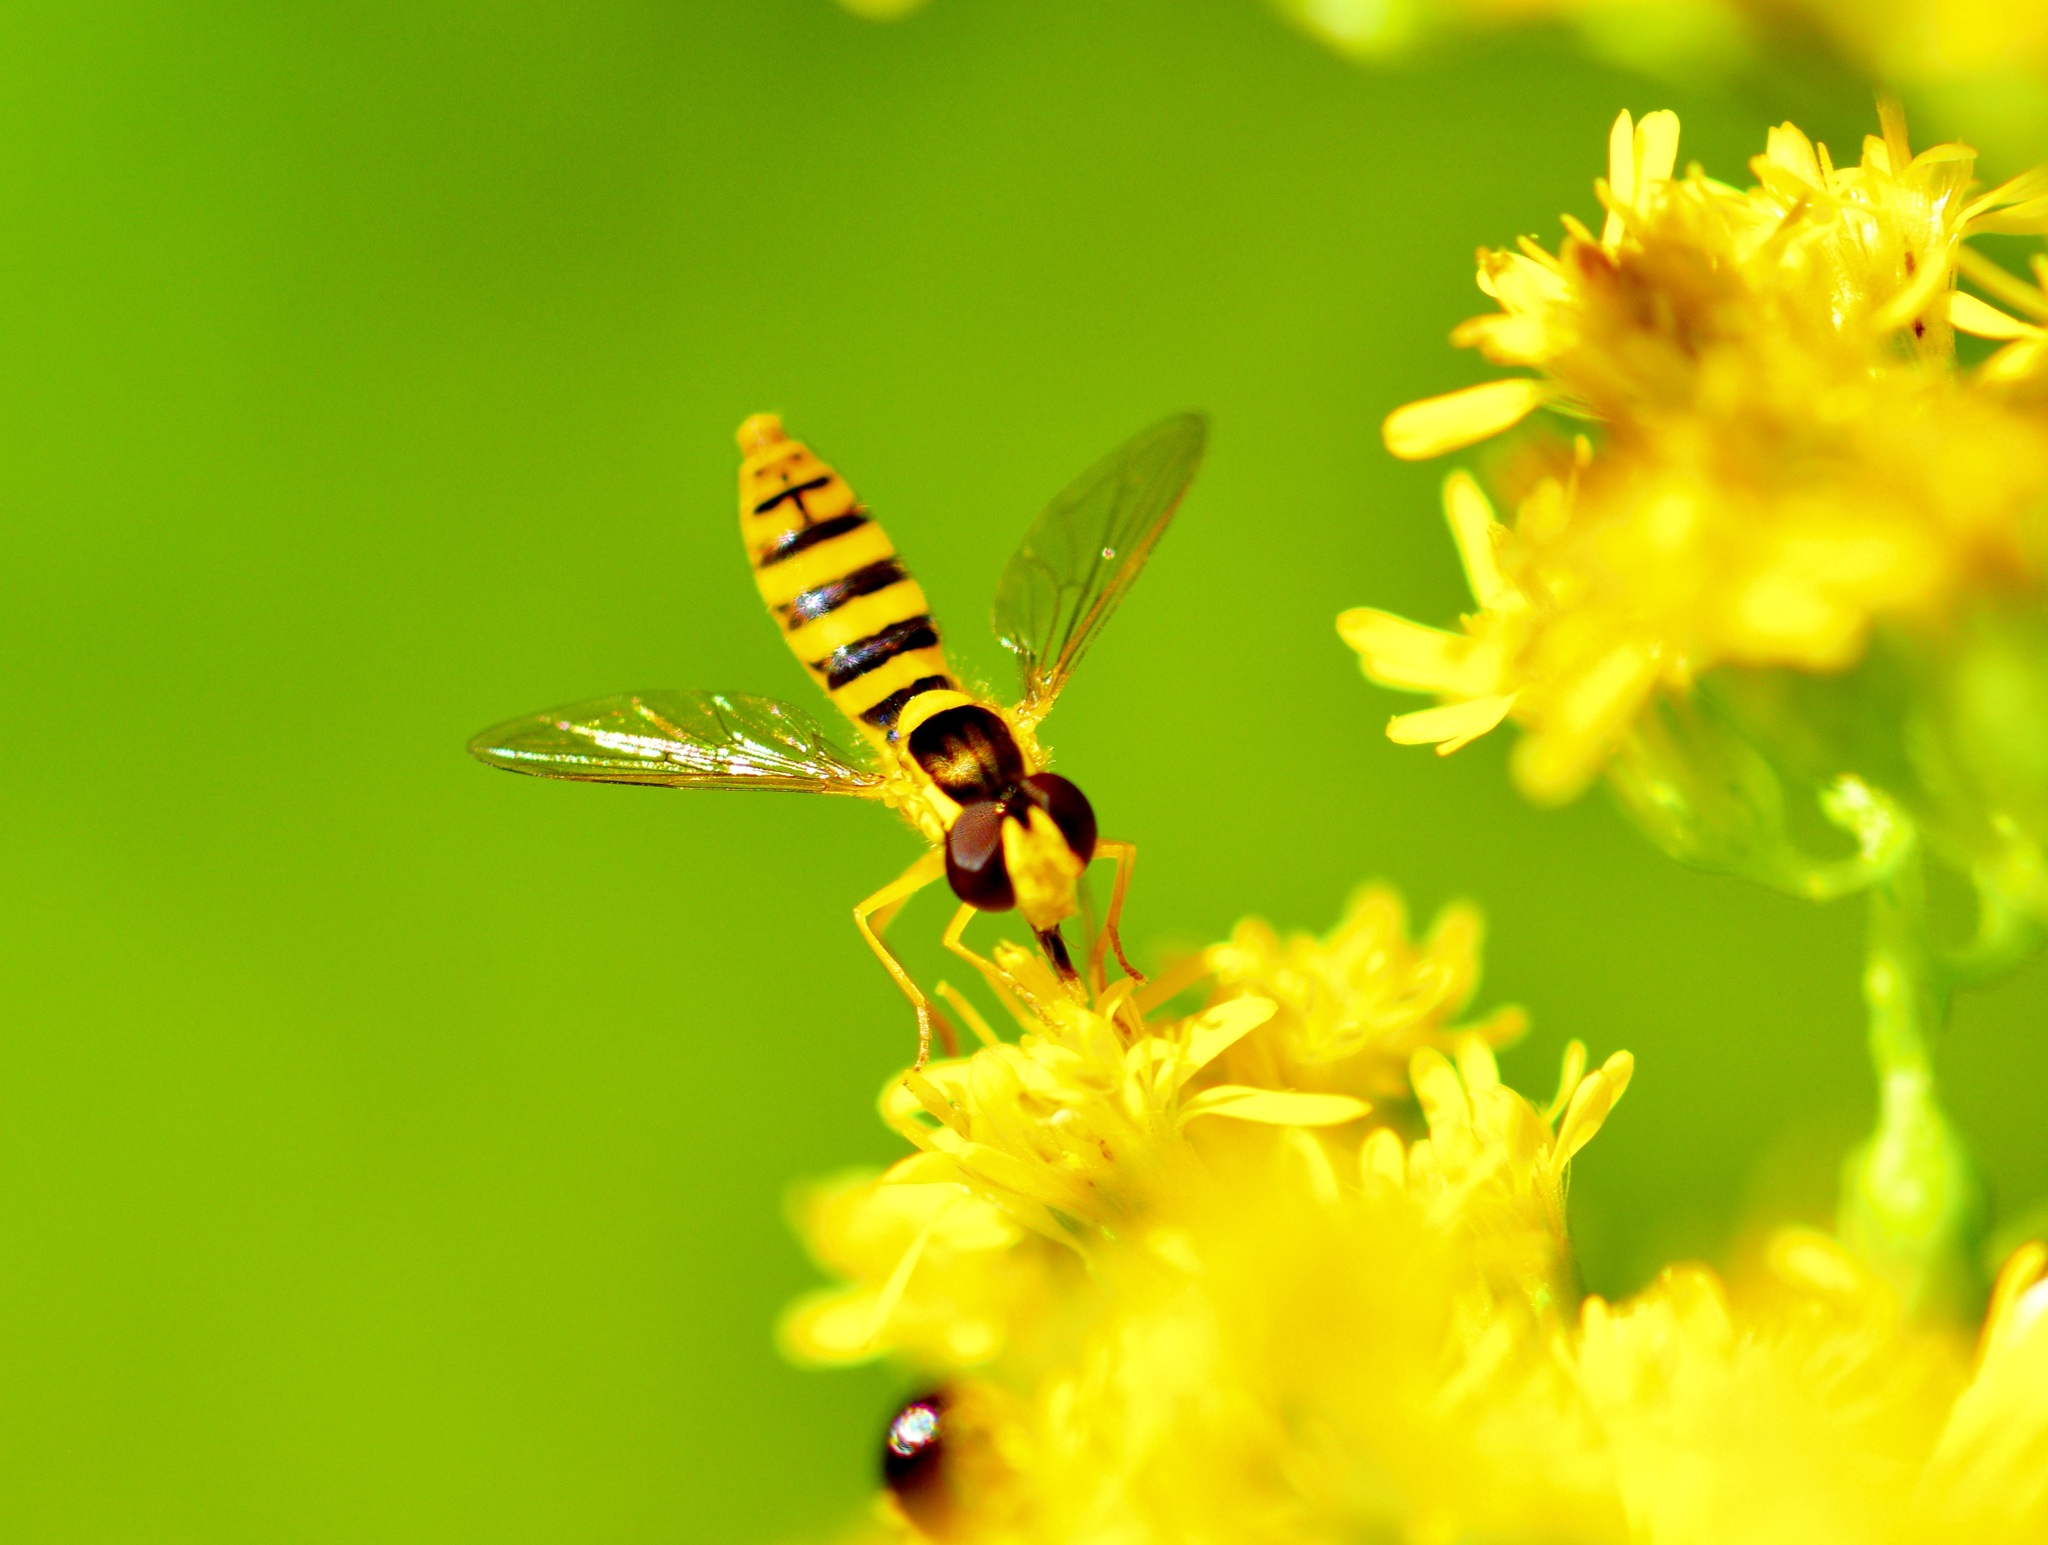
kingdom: Animalia
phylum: Arthropoda
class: Insecta
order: Diptera
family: Syrphidae
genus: Sphaerophoria
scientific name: Sphaerophoria
